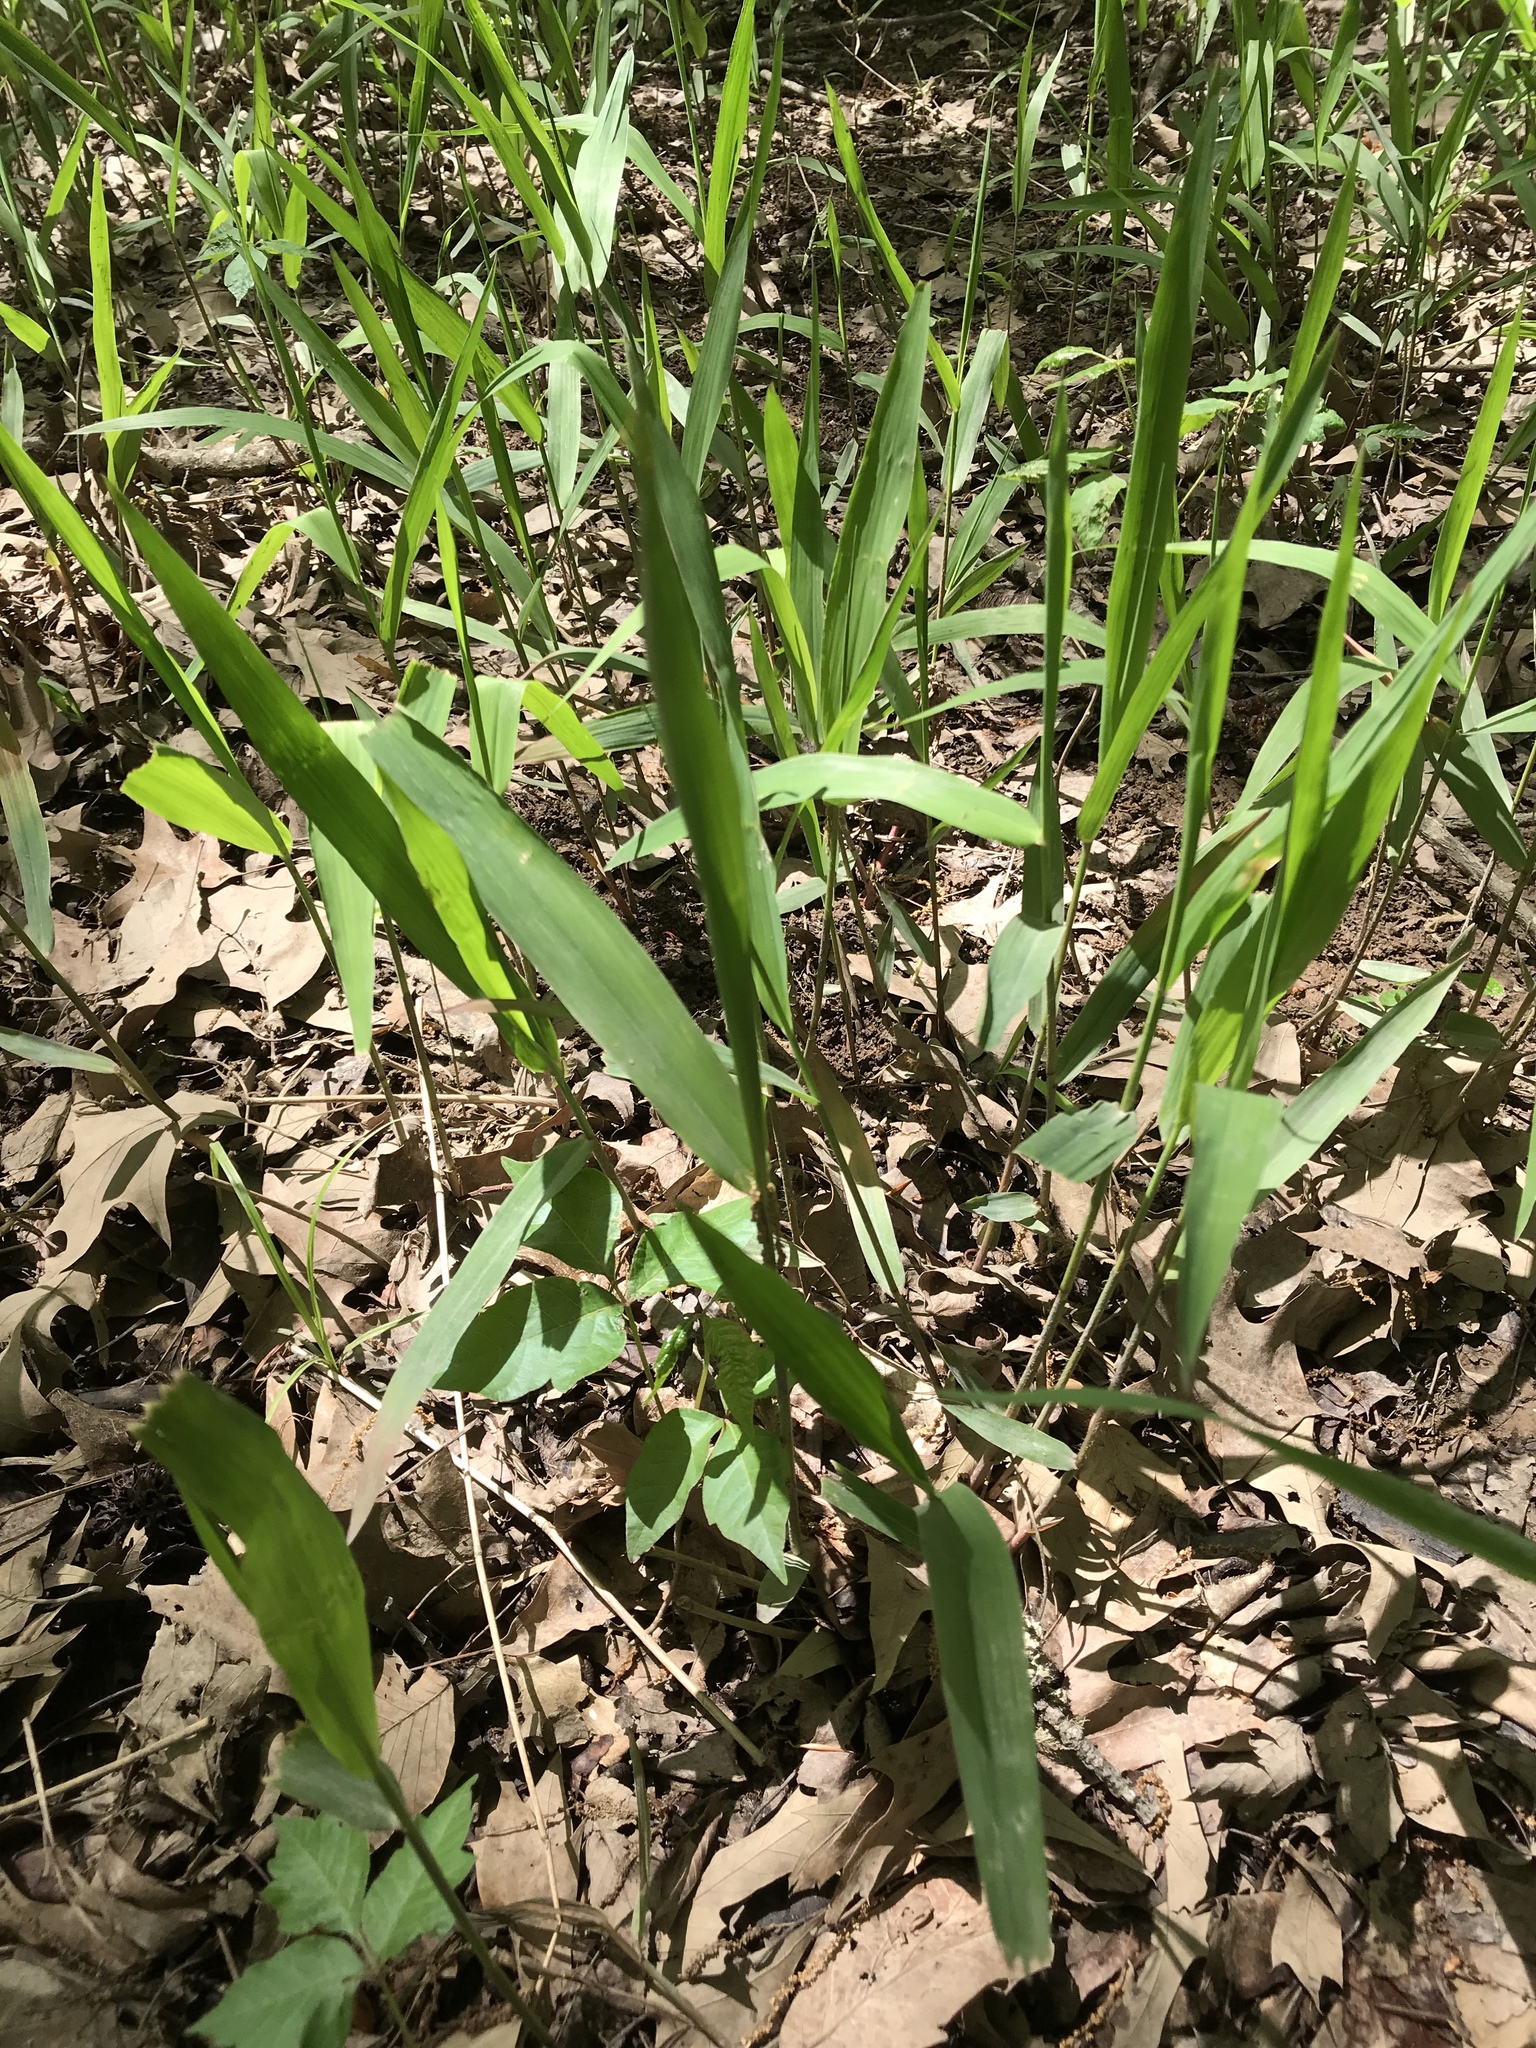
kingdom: Plantae
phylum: Tracheophyta
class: Liliopsida
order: Poales
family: Poaceae
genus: Chasmanthium
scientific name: Chasmanthium latifolium
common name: Broad-leaved chasmanthium
